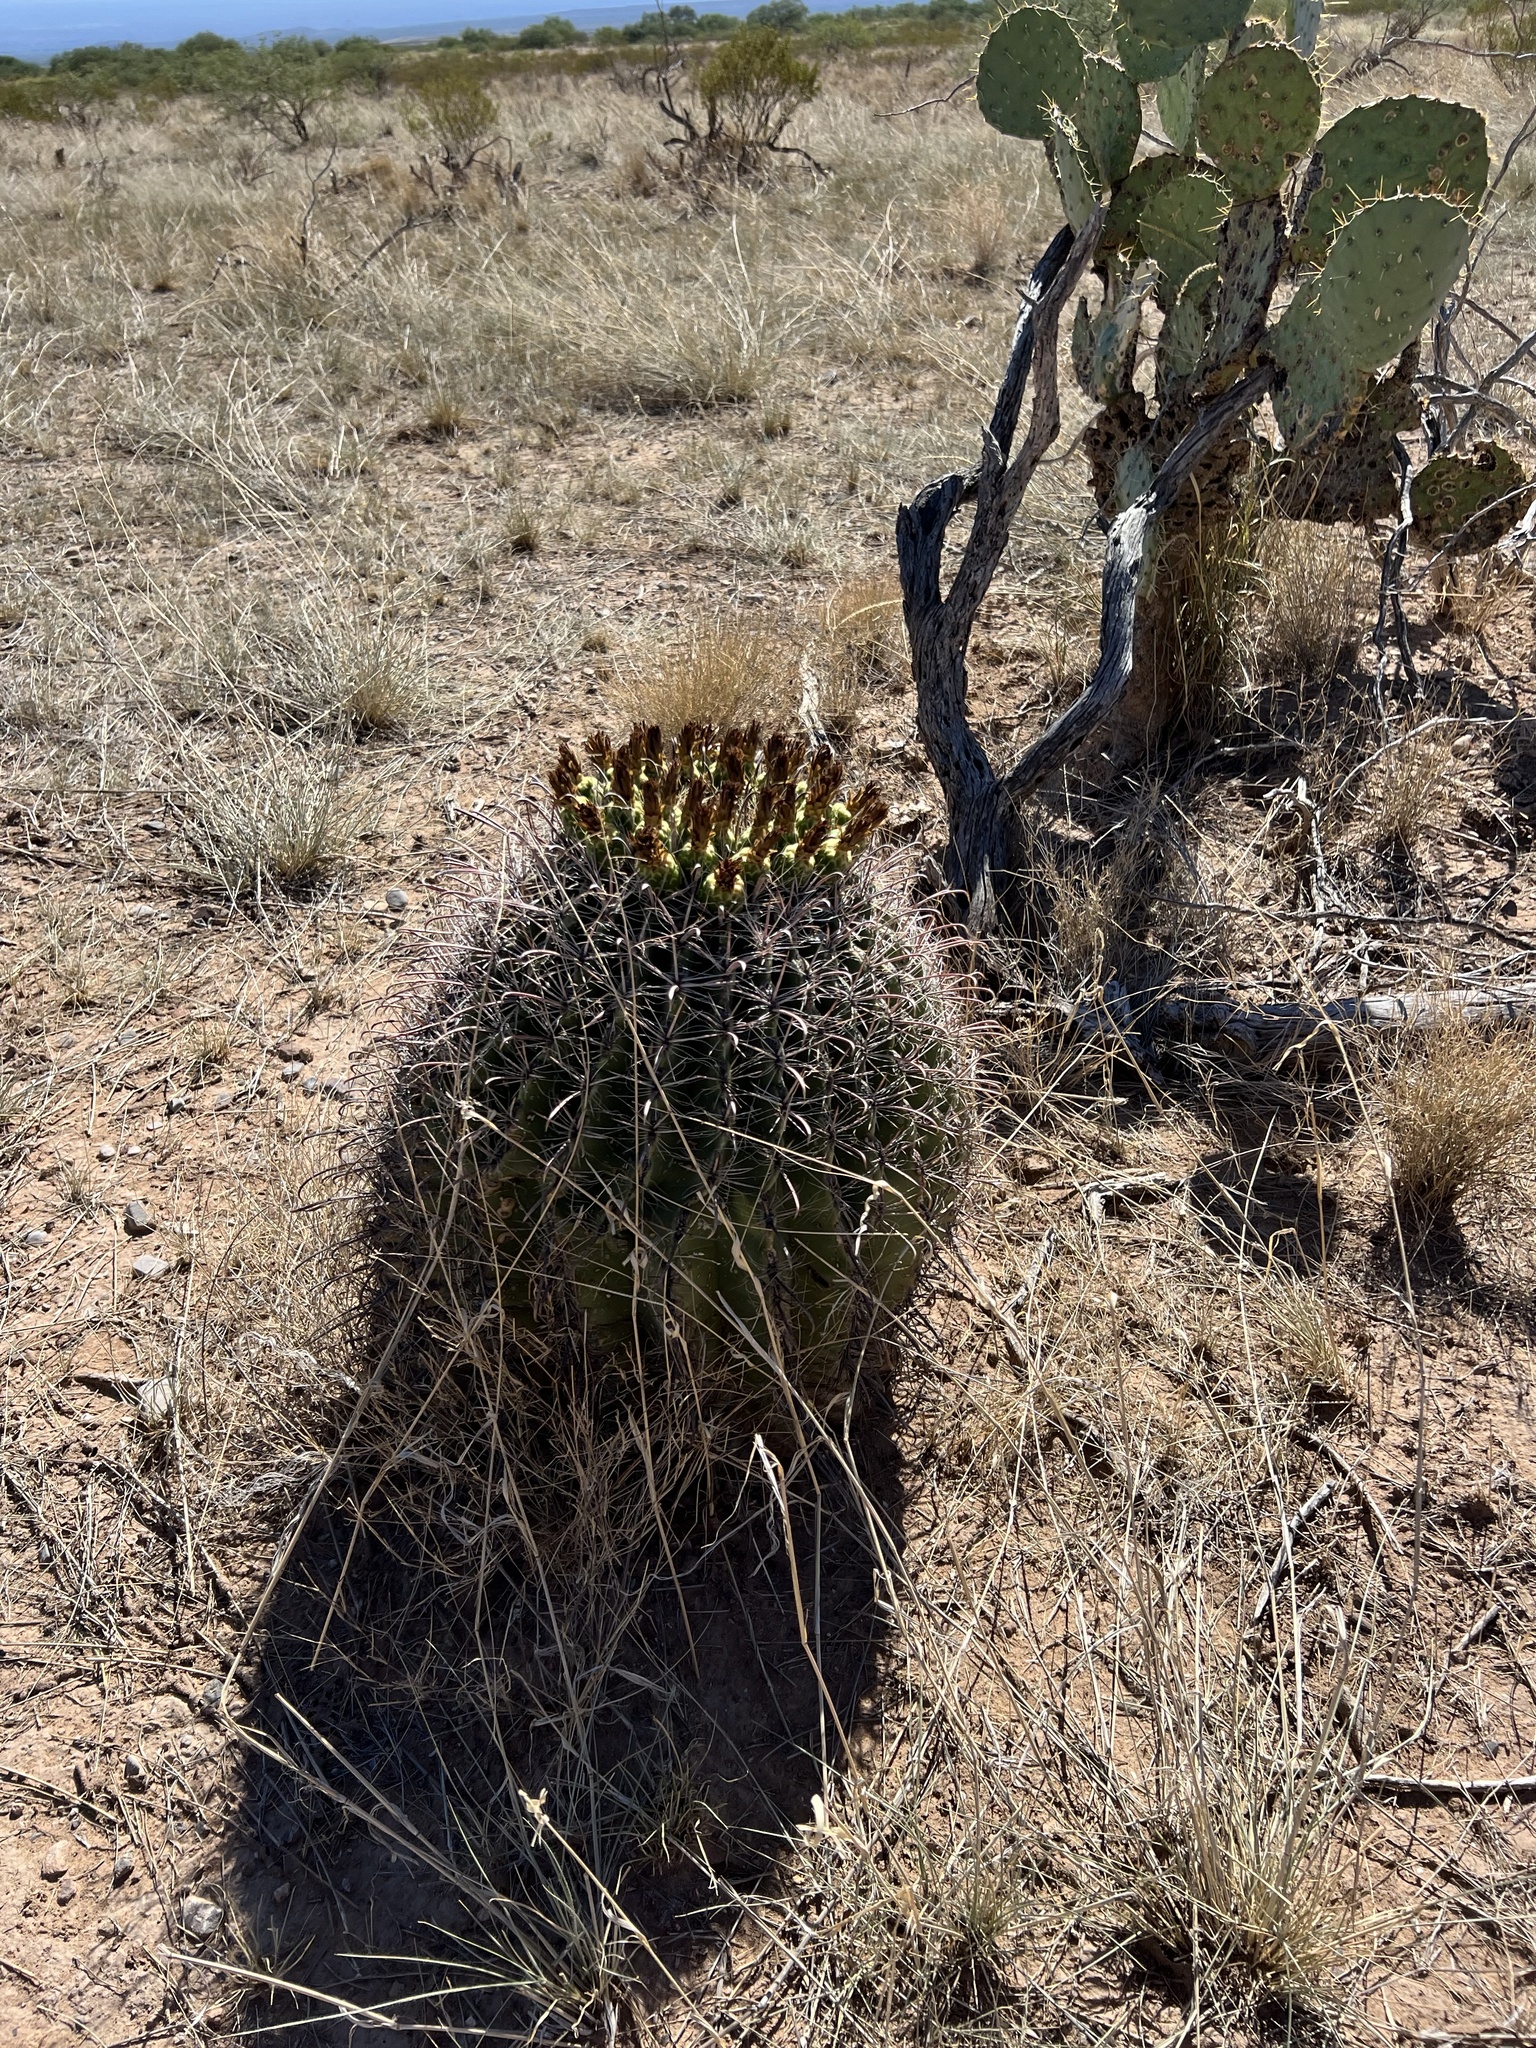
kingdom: Plantae
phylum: Tracheophyta
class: Magnoliopsida
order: Caryophyllales
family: Cactaceae
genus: Ferocactus
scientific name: Ferocactus wislizeni
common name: Candy barrel cactus
